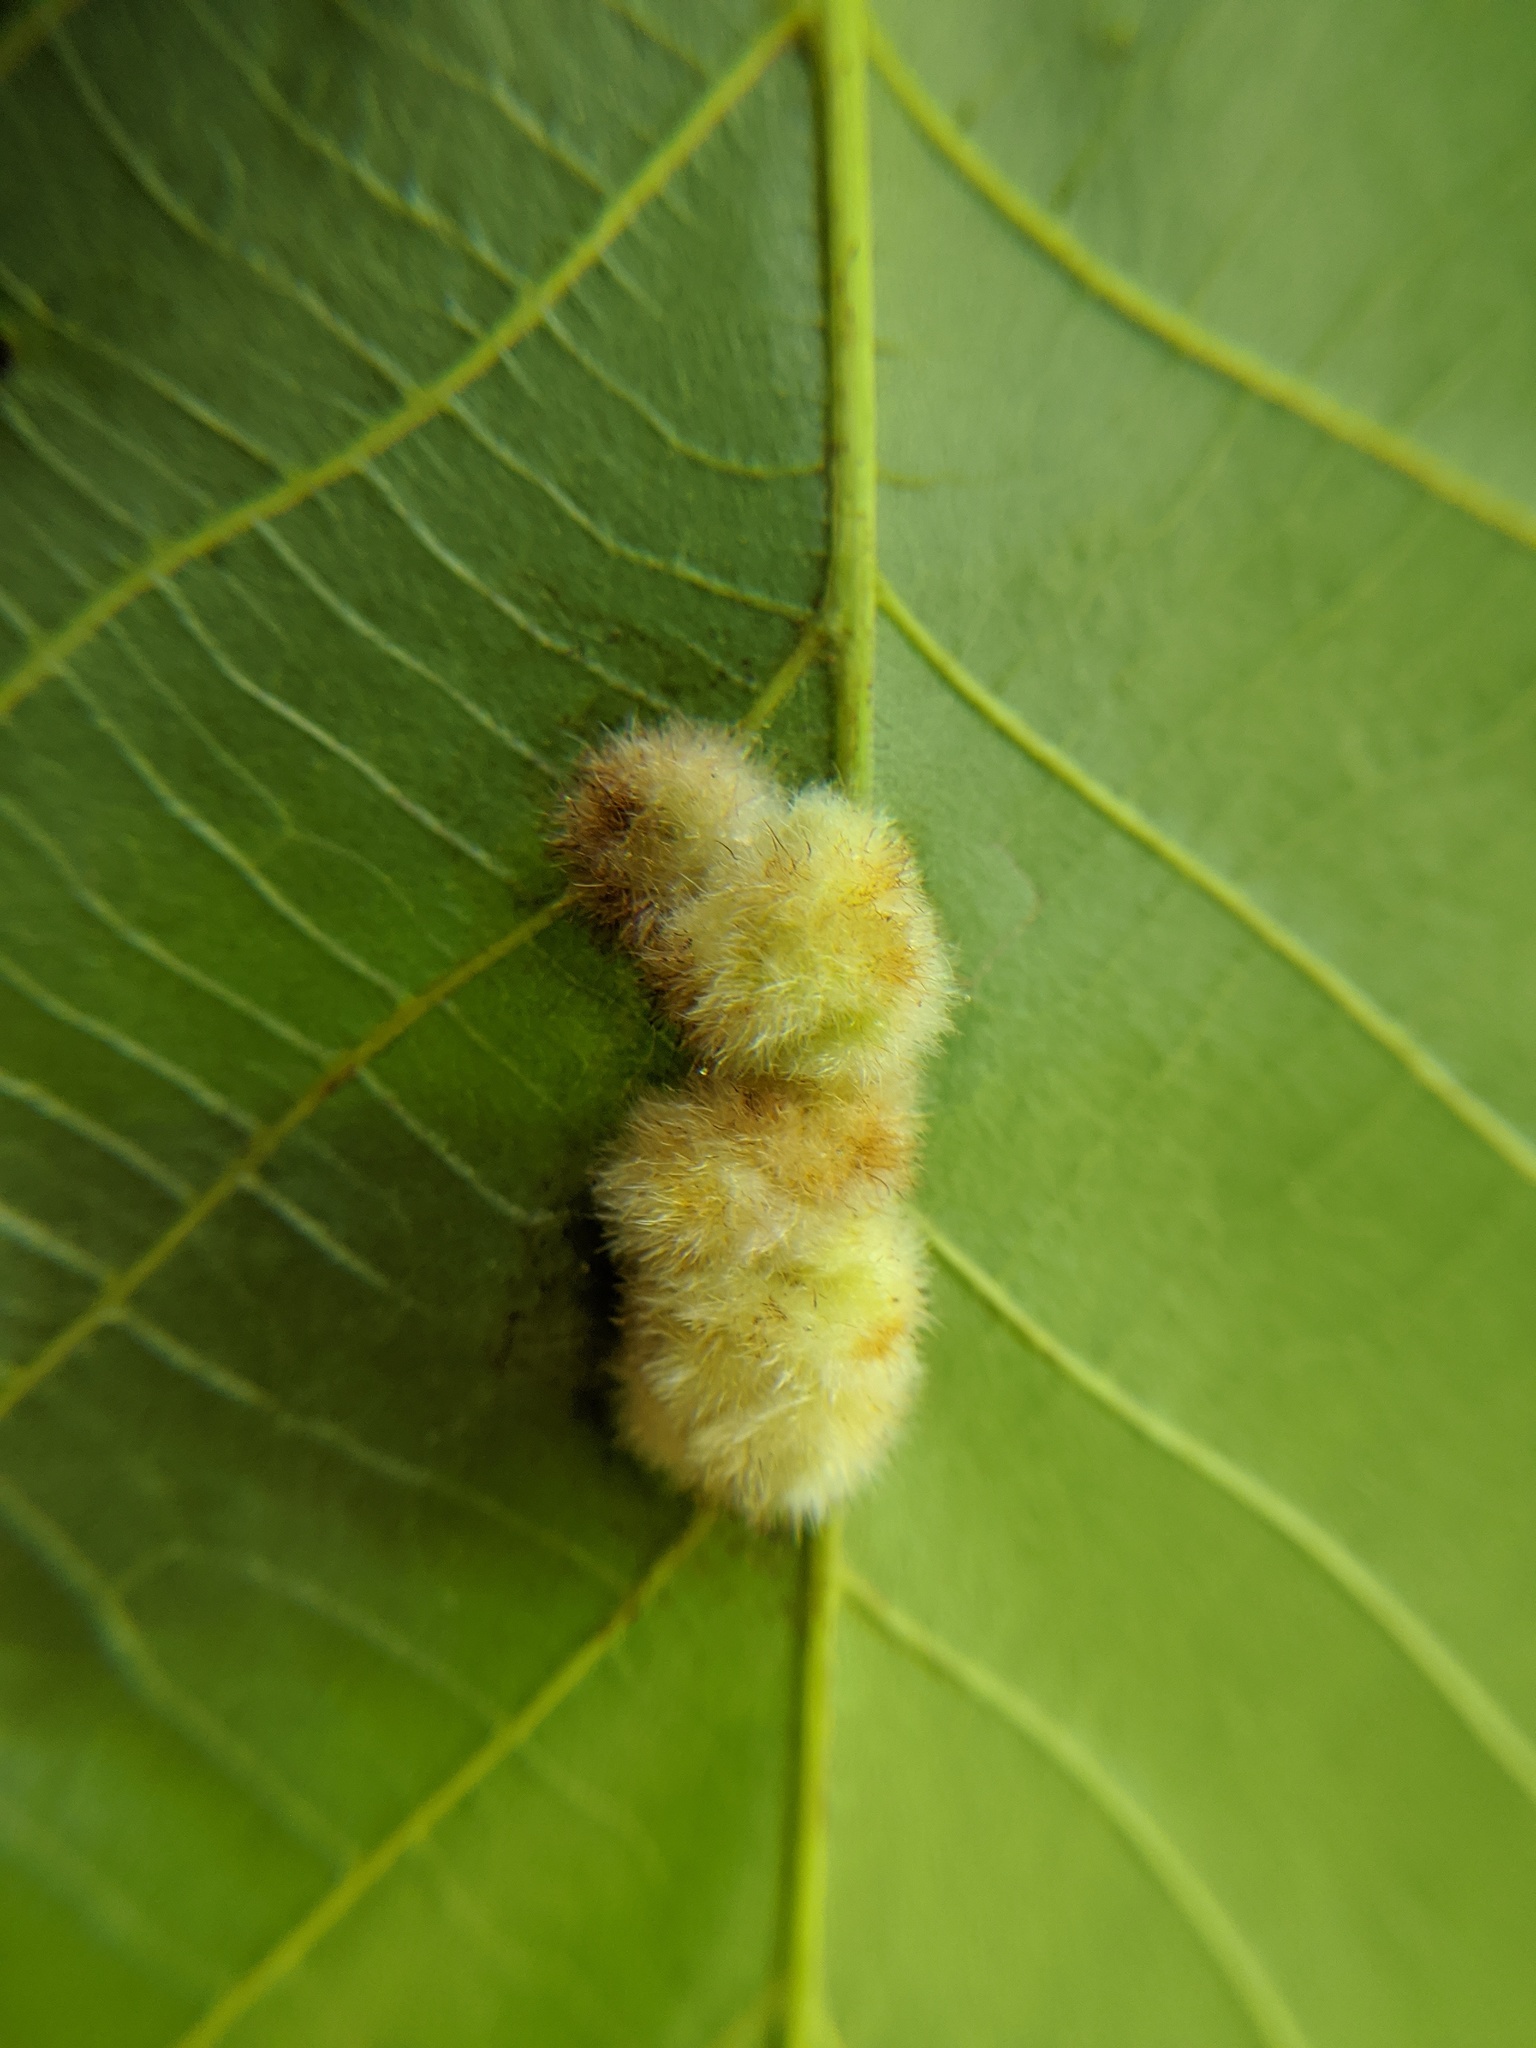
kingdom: Animalia
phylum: Arthropoda
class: Insecta
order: Diptera
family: Cecidomyiidae
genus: Caryomyia
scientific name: Caryomyia aggregata
